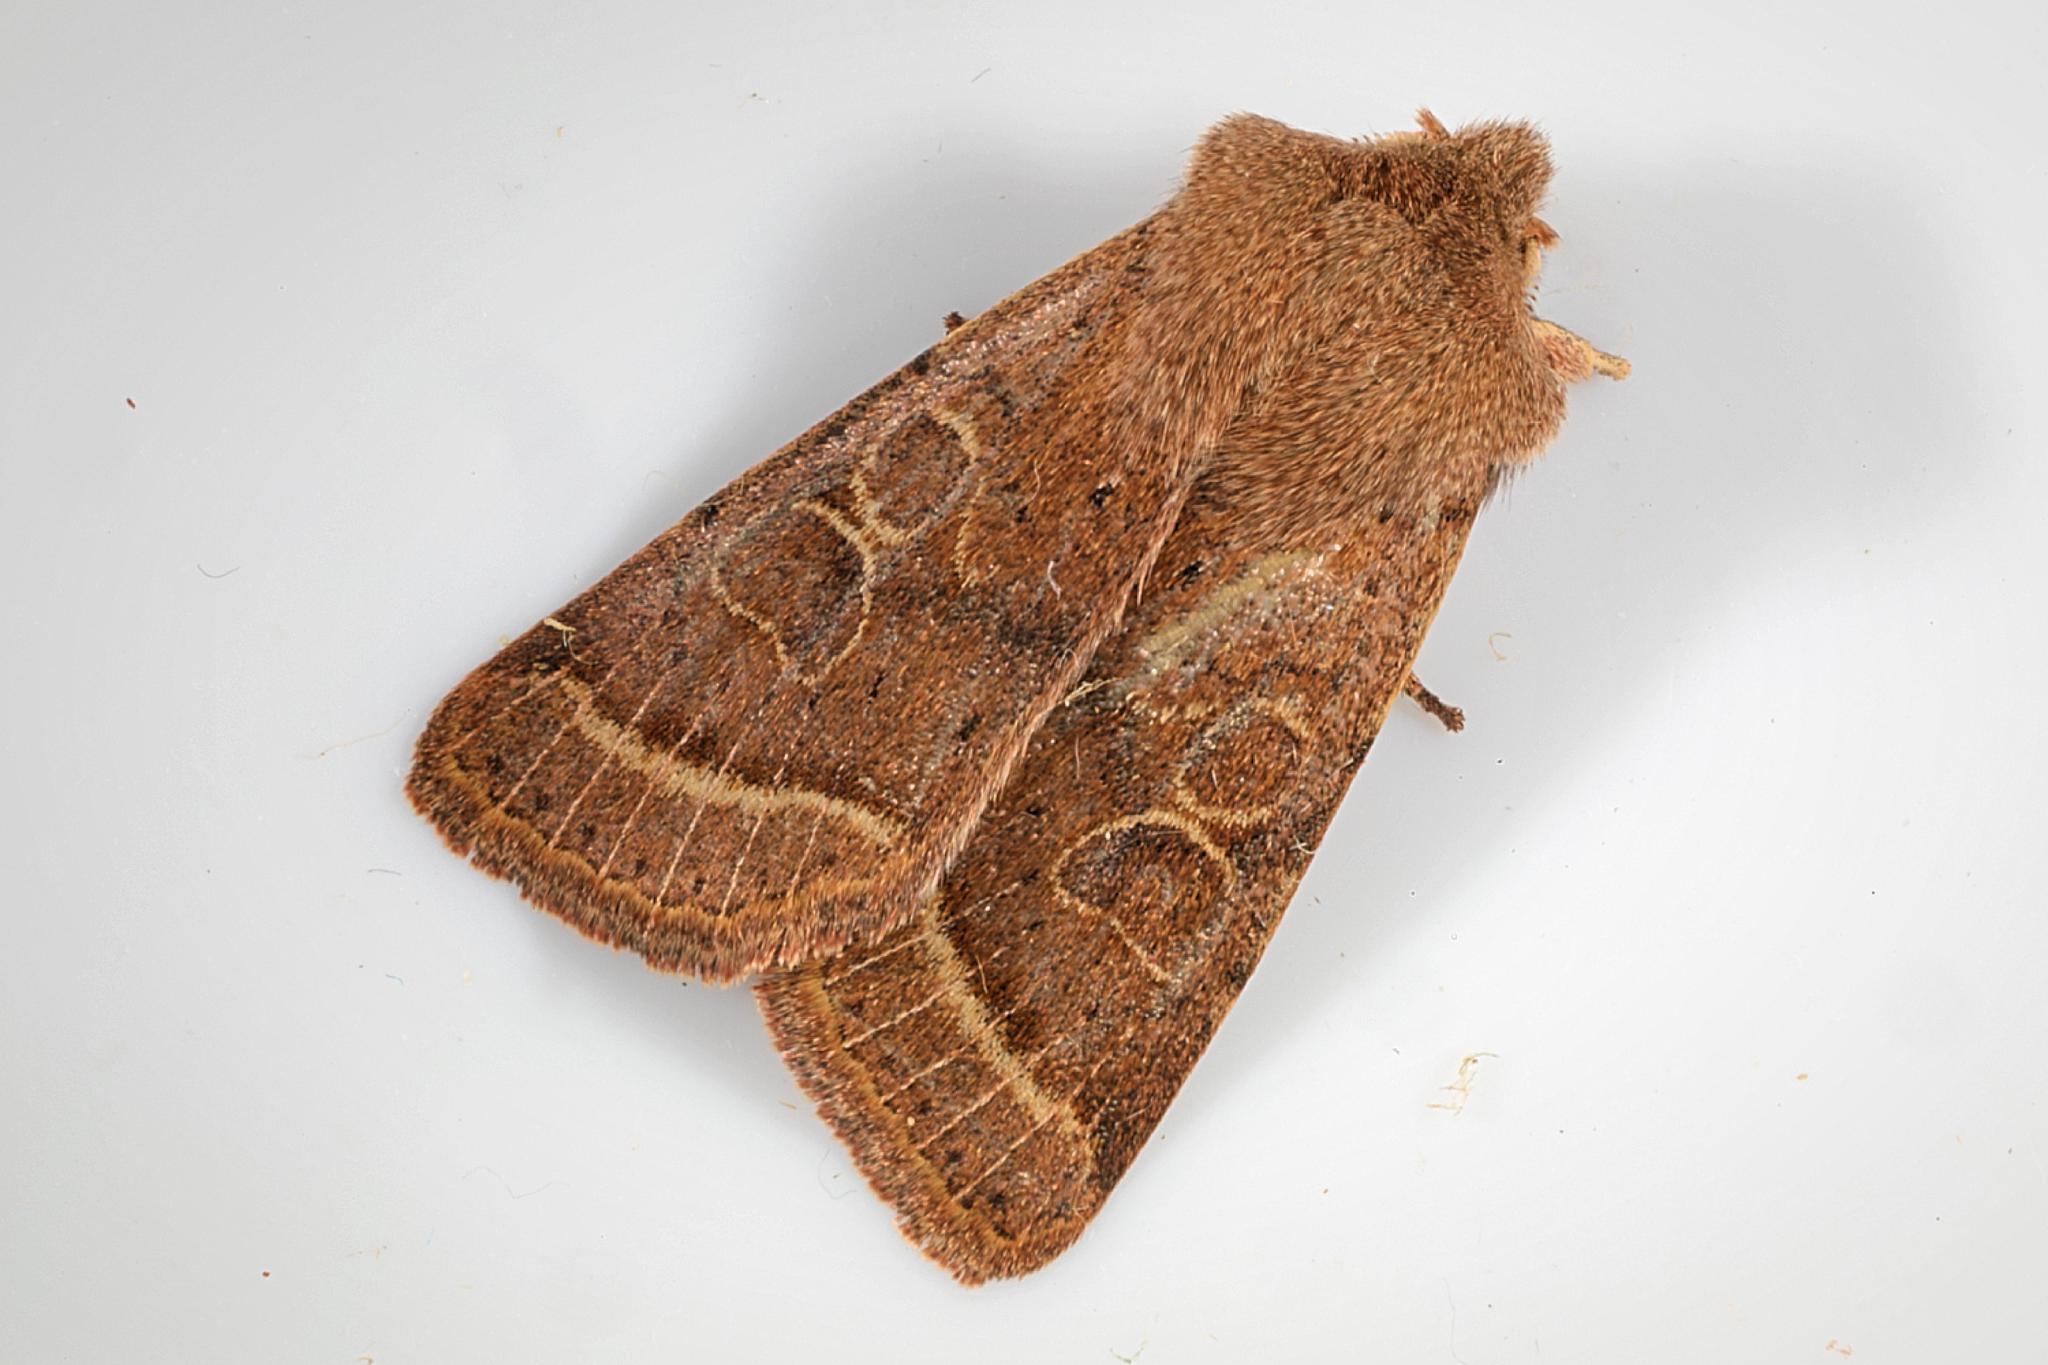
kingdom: Animalia
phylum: Arthropoda
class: Insecta
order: Lepidoptera
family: Noctuidae
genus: Orthosia
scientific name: Orthosia cerasi
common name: Common quaker
